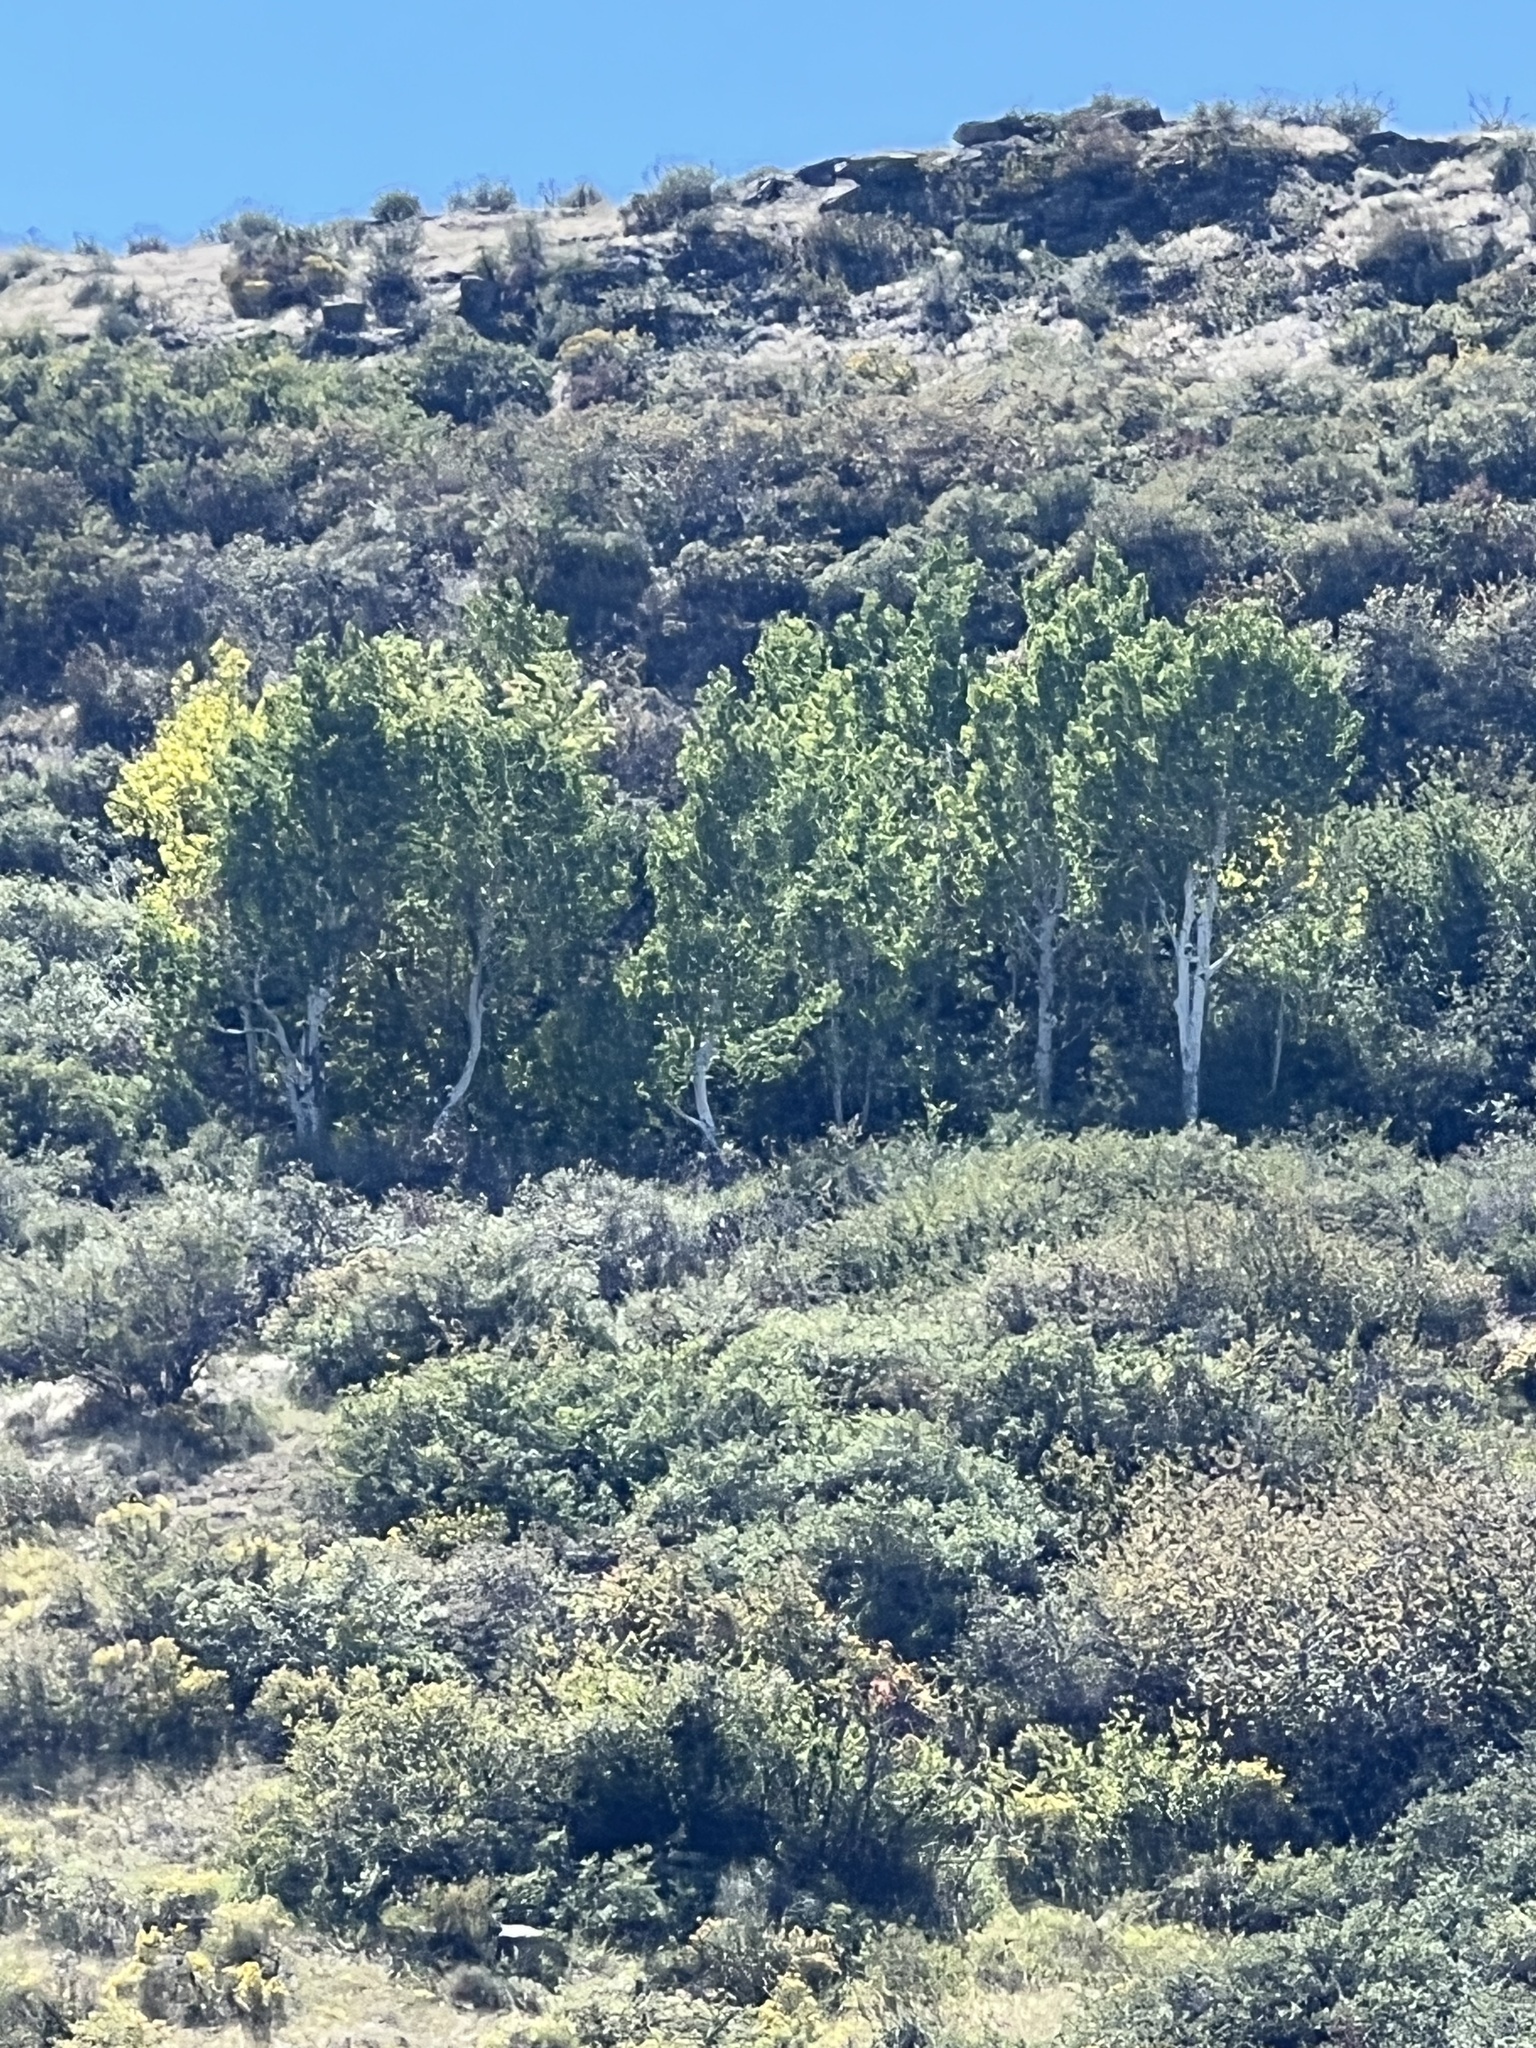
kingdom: Plantae
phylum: Tracheophyta
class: Magnoliopsida
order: Malpighiales
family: Salicaceae
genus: Populus
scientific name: Populus tremuloides
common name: Quaking aspen
